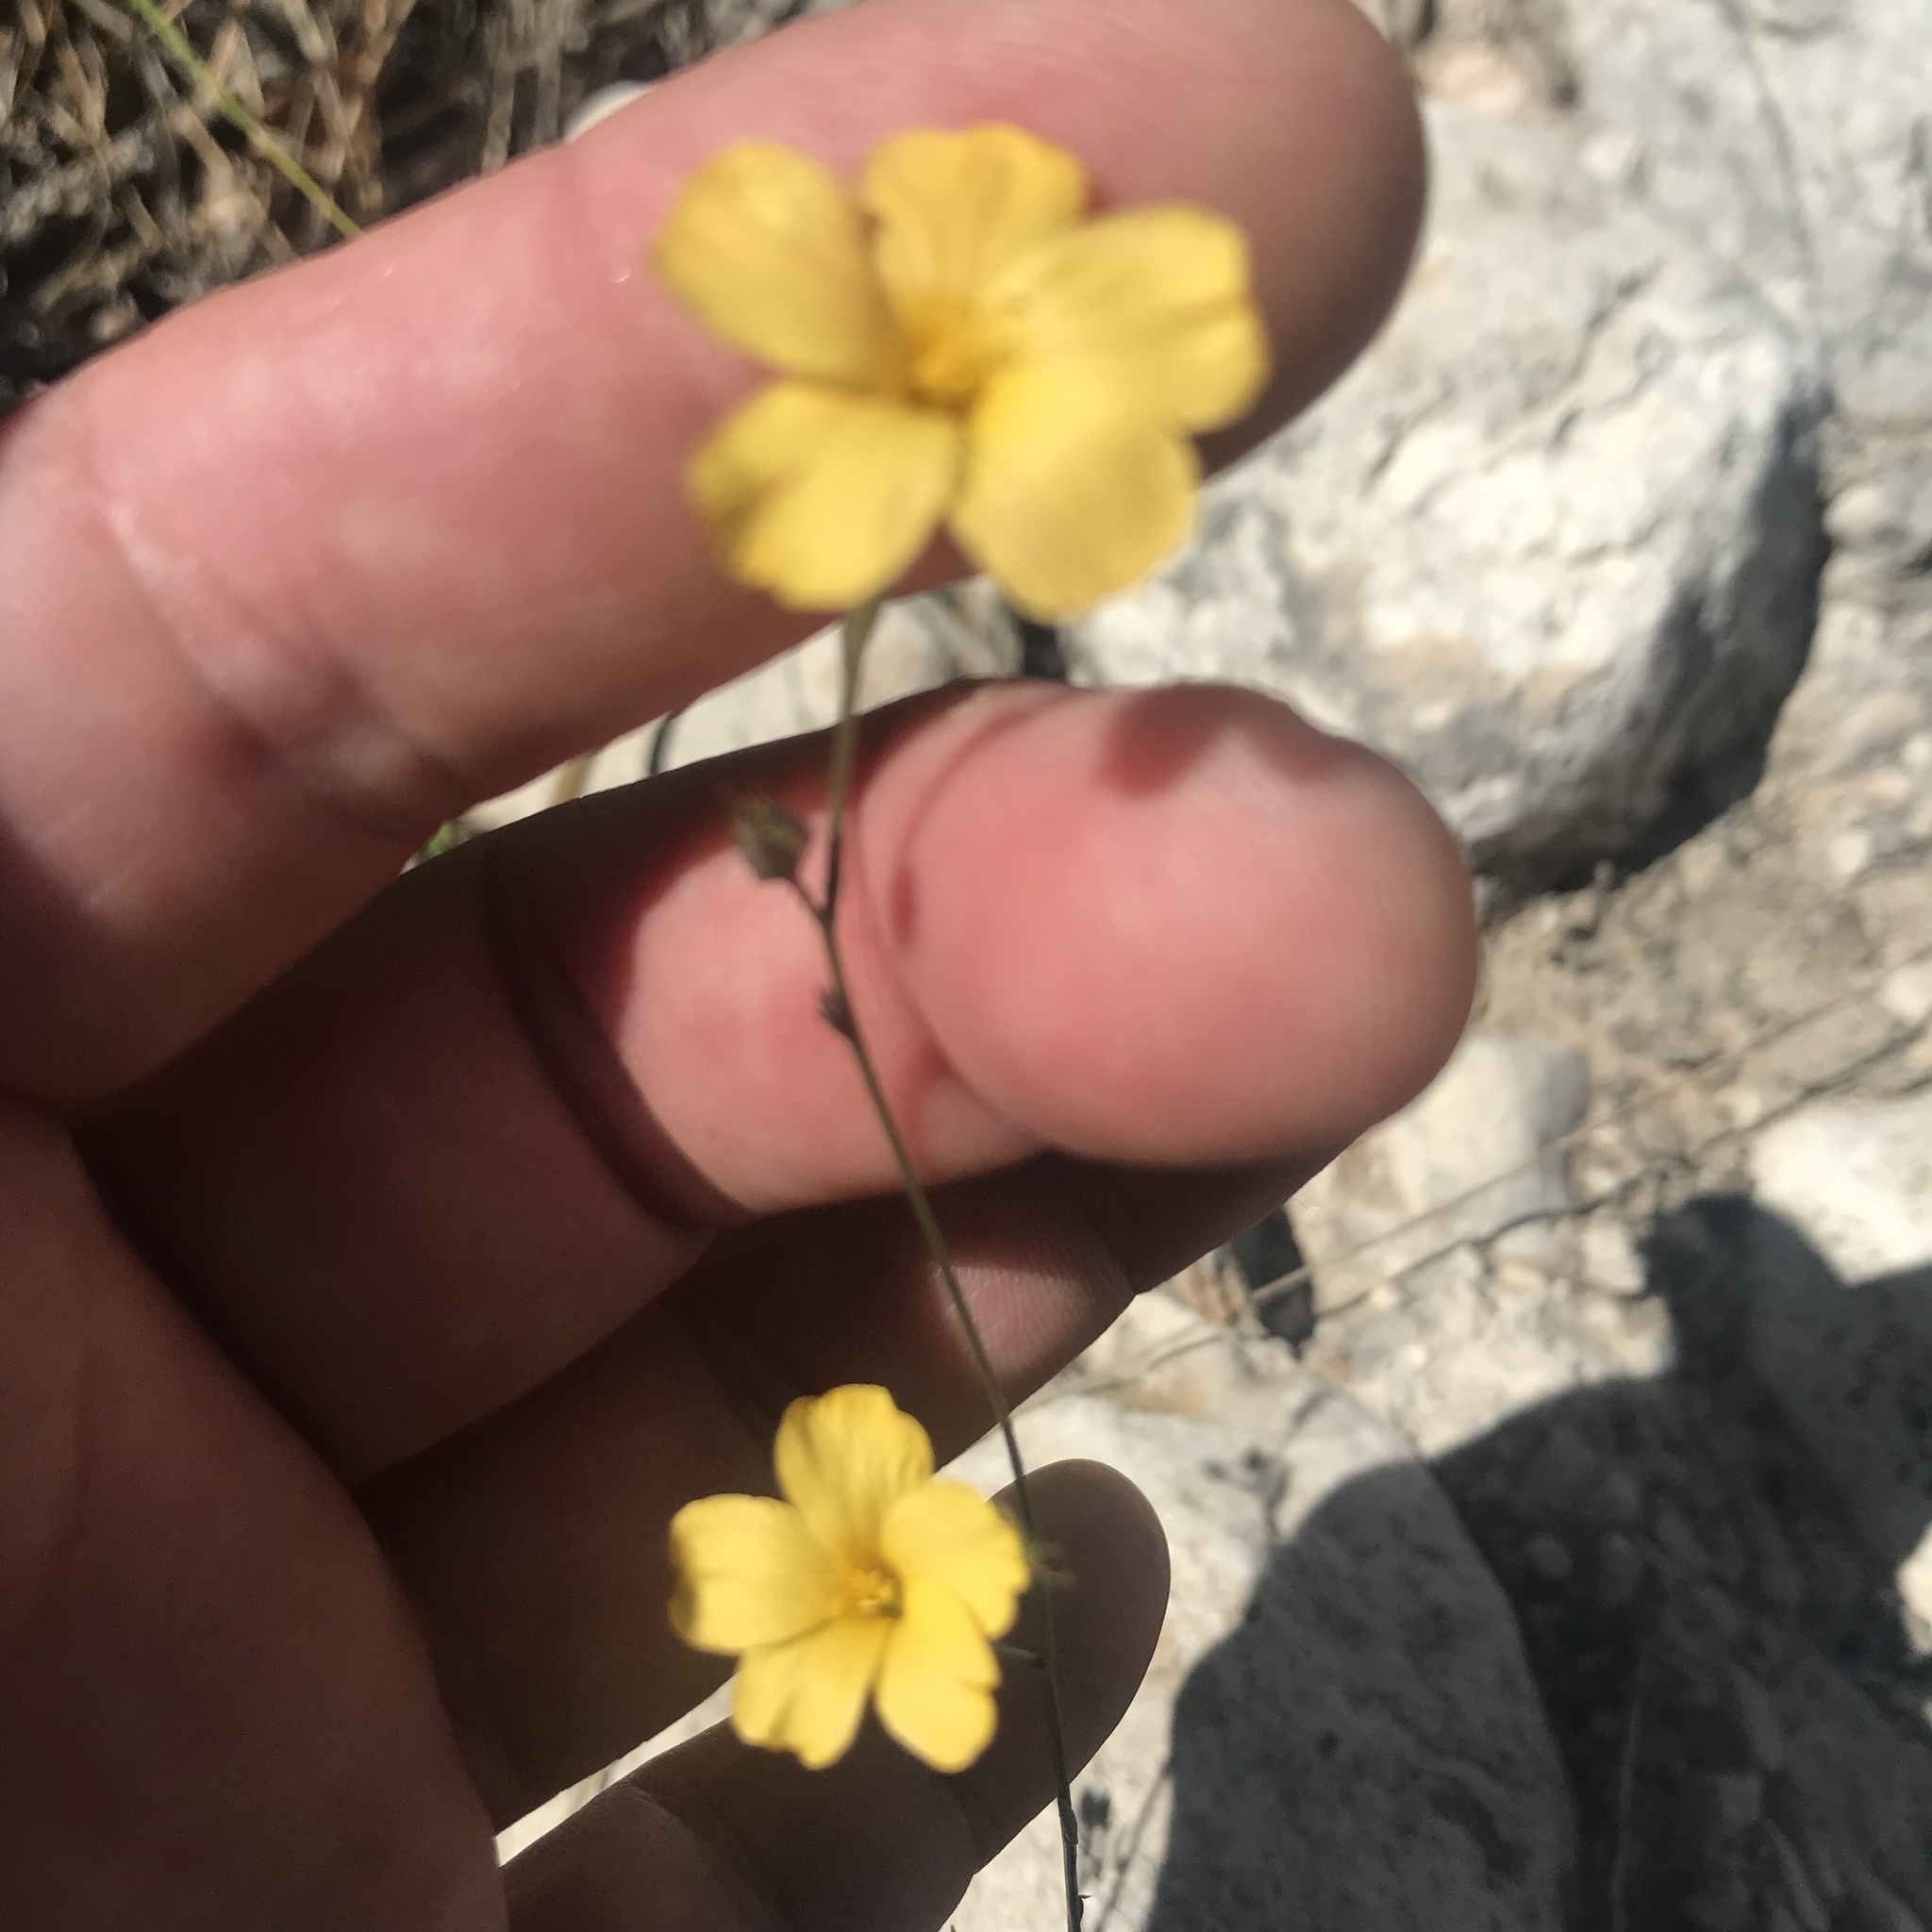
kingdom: Plantae
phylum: Tracheophyta
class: Magnoliopsida
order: Malpighiales
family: Linaceae
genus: Linum
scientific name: Linum rupestre
